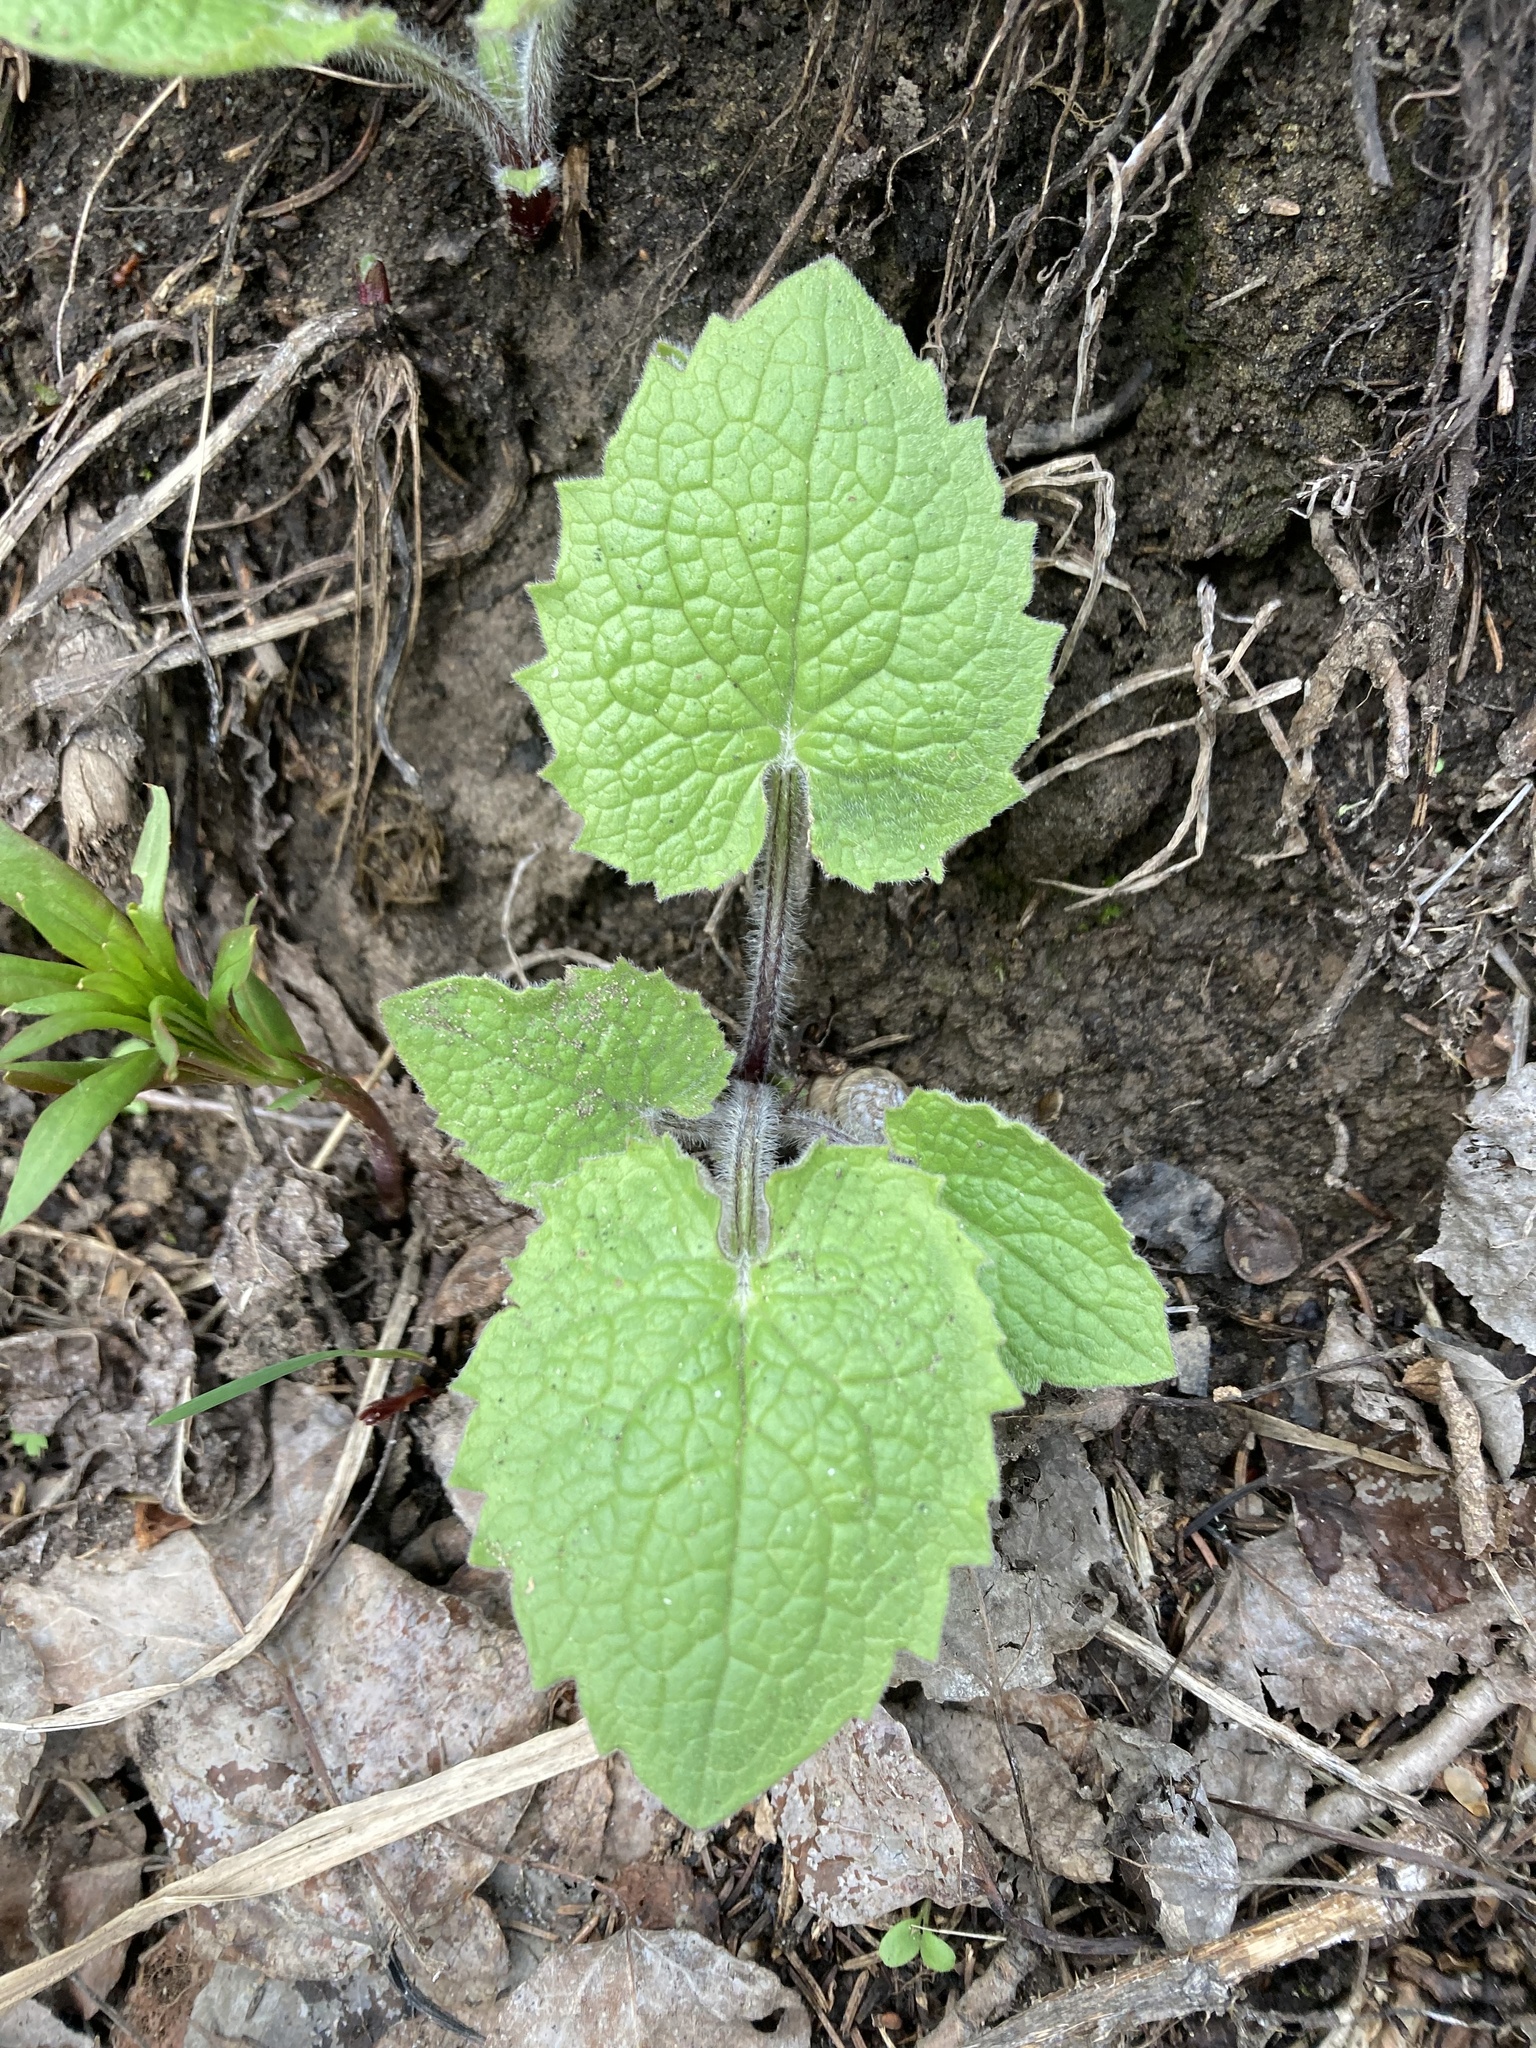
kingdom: Plantae
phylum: Tracheophyta
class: Magnoliopsida
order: Asterales
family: Asteraceae
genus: Arnica
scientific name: Arnica cordifolia
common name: Heart-leaf arnica
